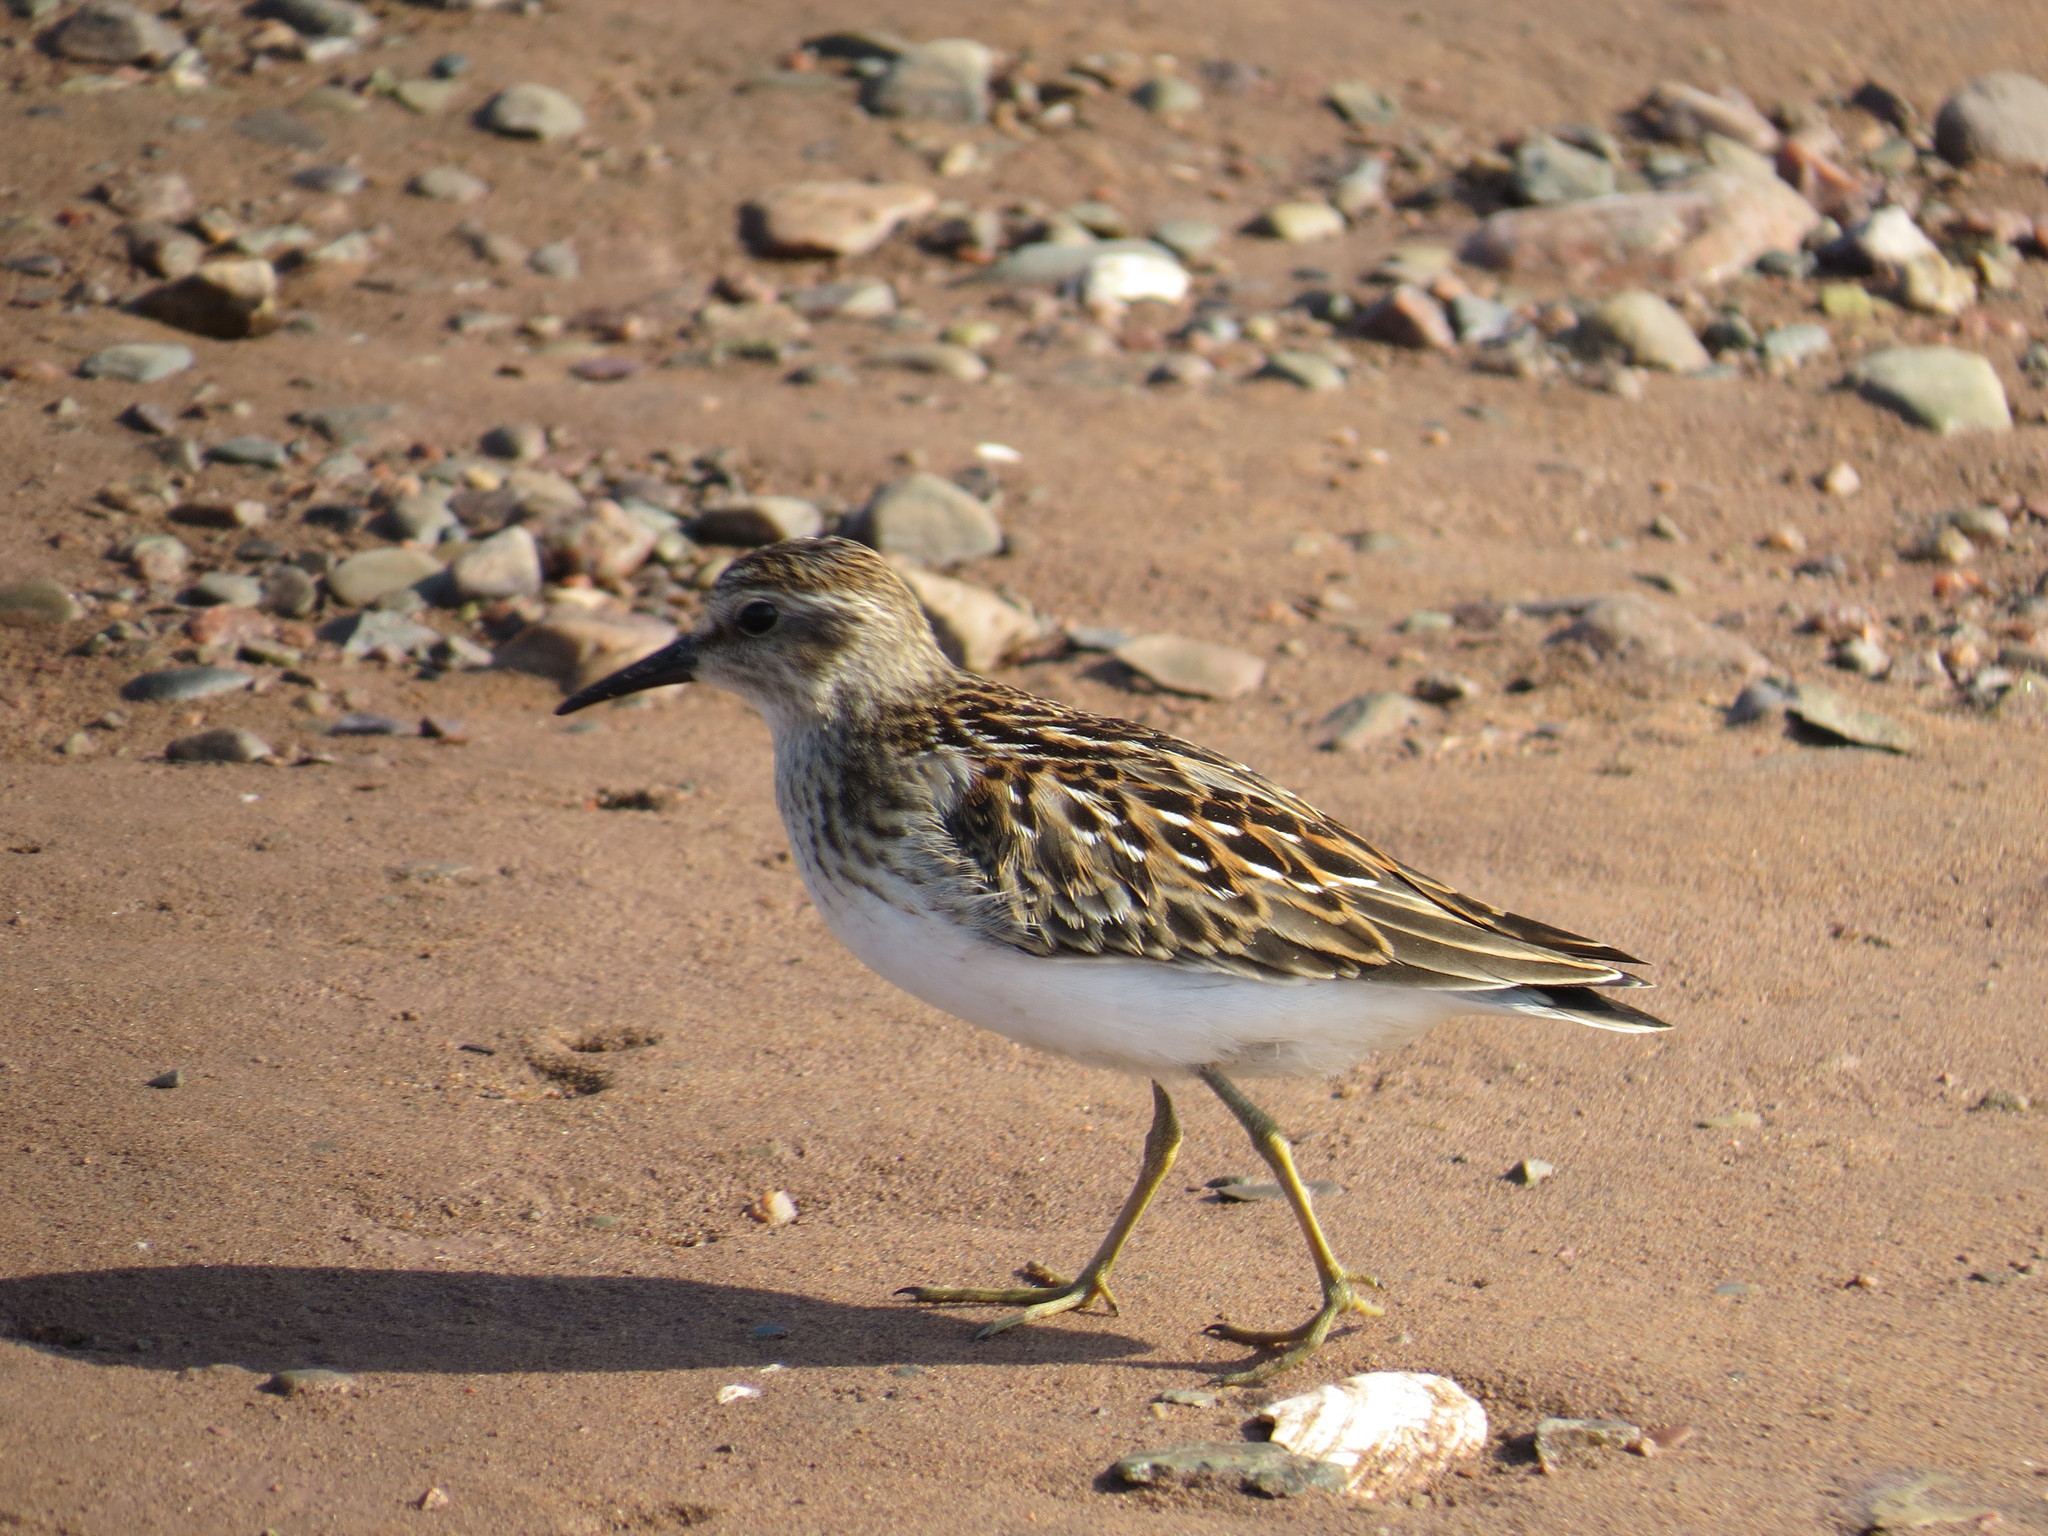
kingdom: Animalia
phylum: Chordata
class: Aves
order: Charadriiformes
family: Scolopacidae
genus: Calidris
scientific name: Calidris minutilla
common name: Least sandpiper
